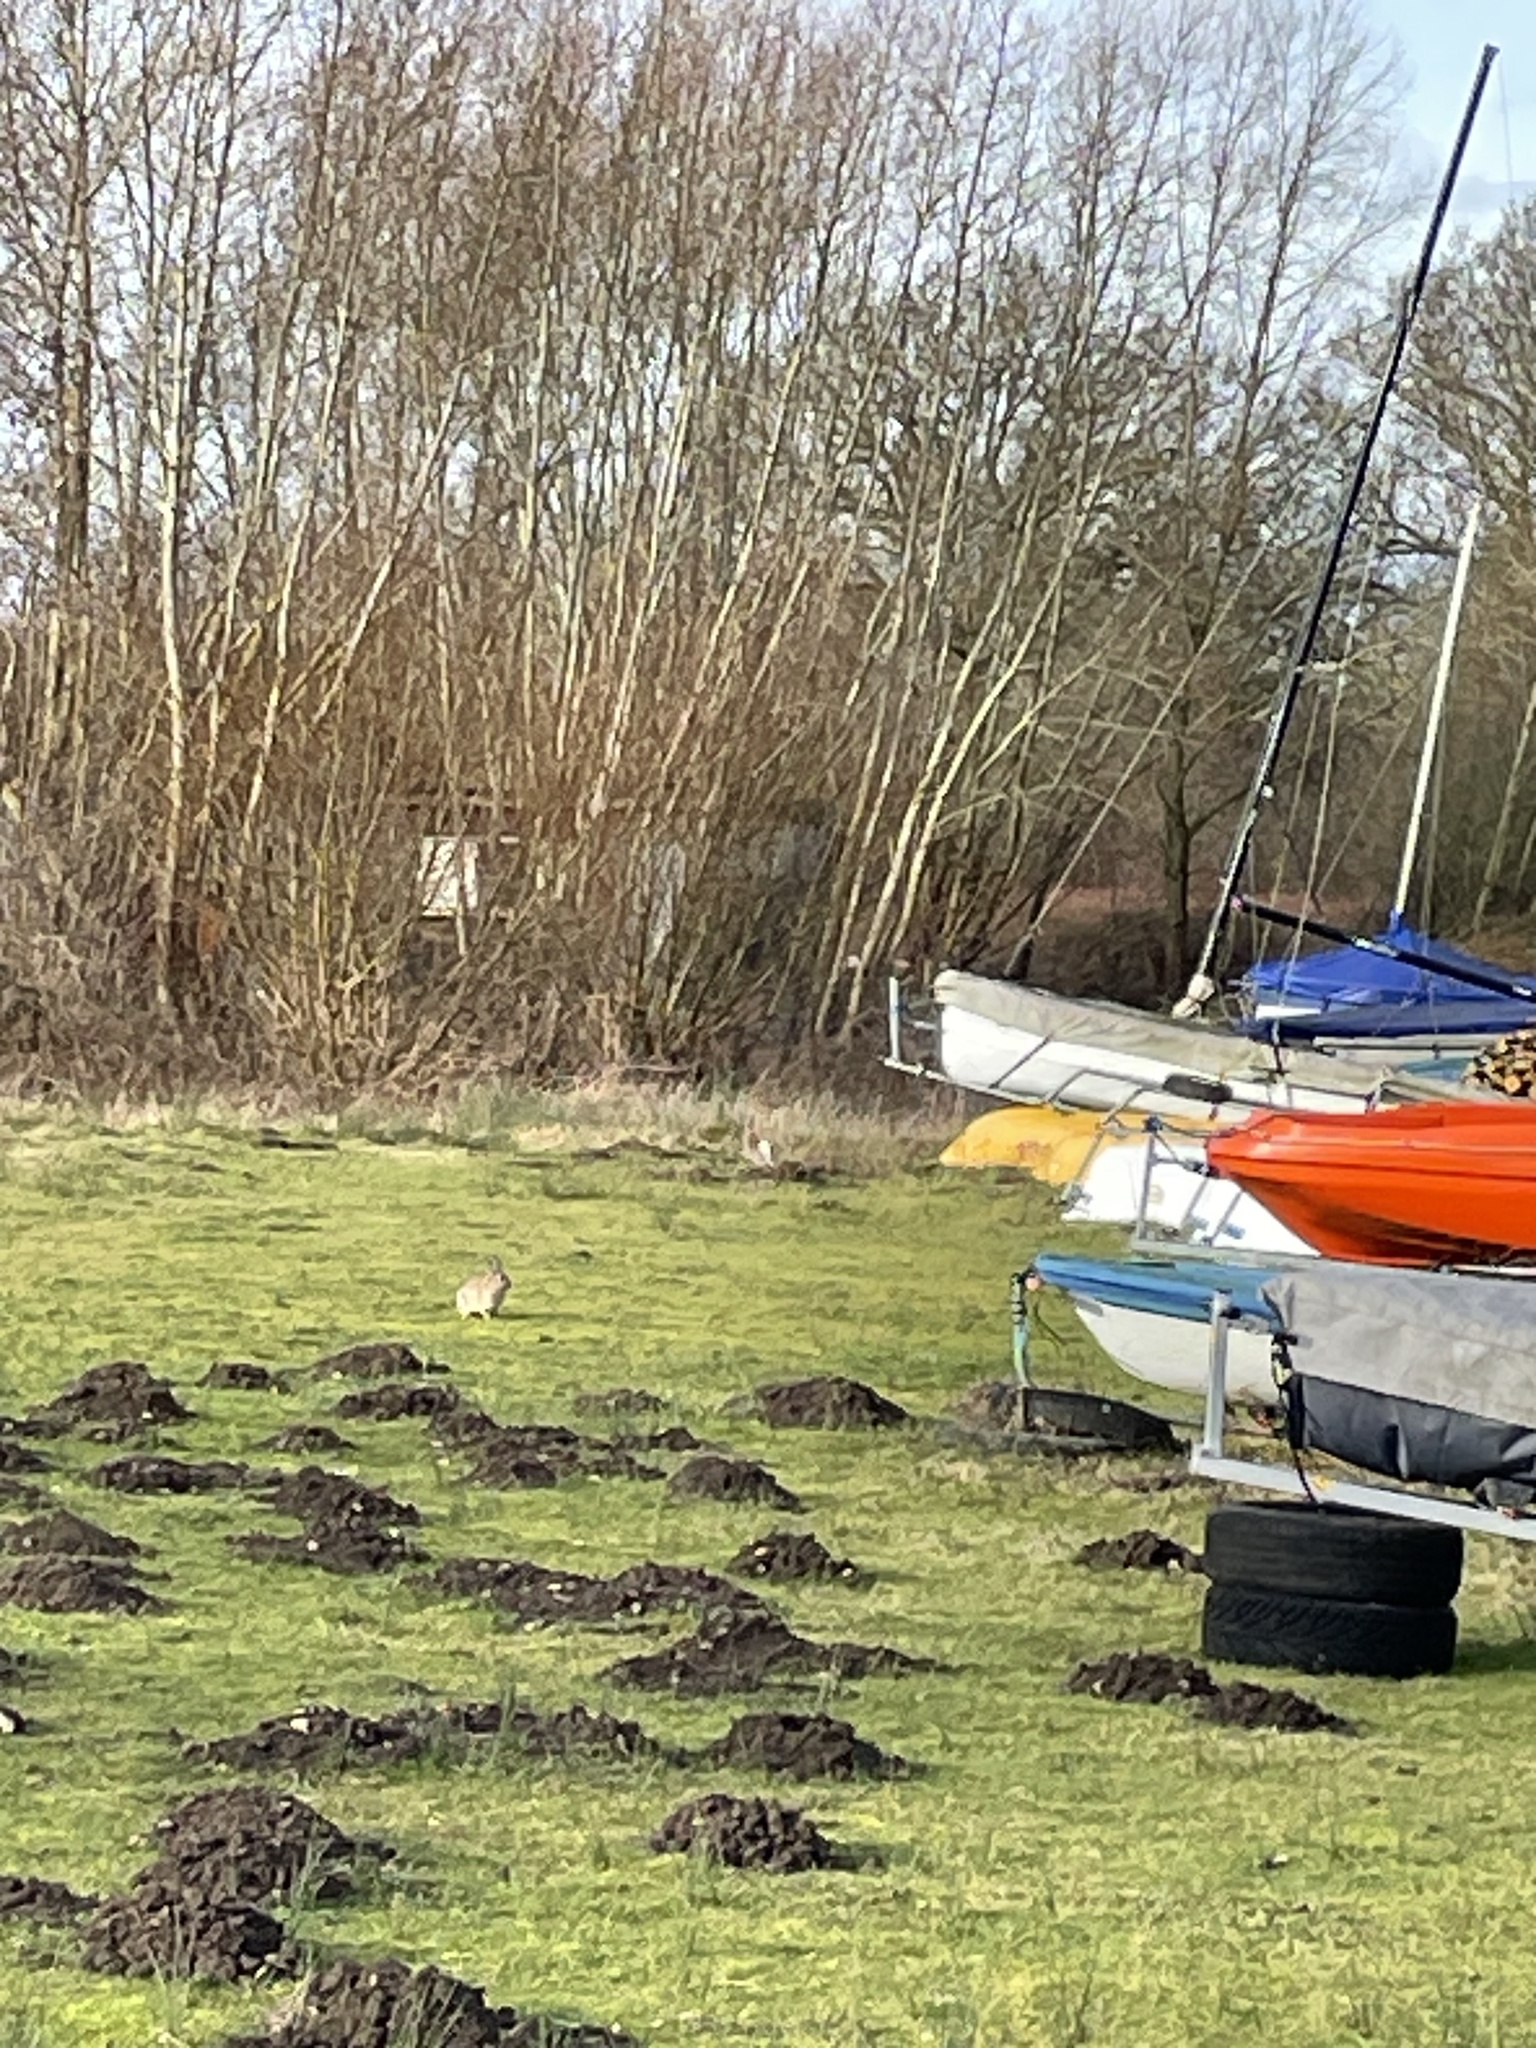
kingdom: Animalia
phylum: Chordata
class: Mammalia
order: Lagomorpha
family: Leporidae
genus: Oryctolagus
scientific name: Oryctolagus cuniculus
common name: European rabbit
